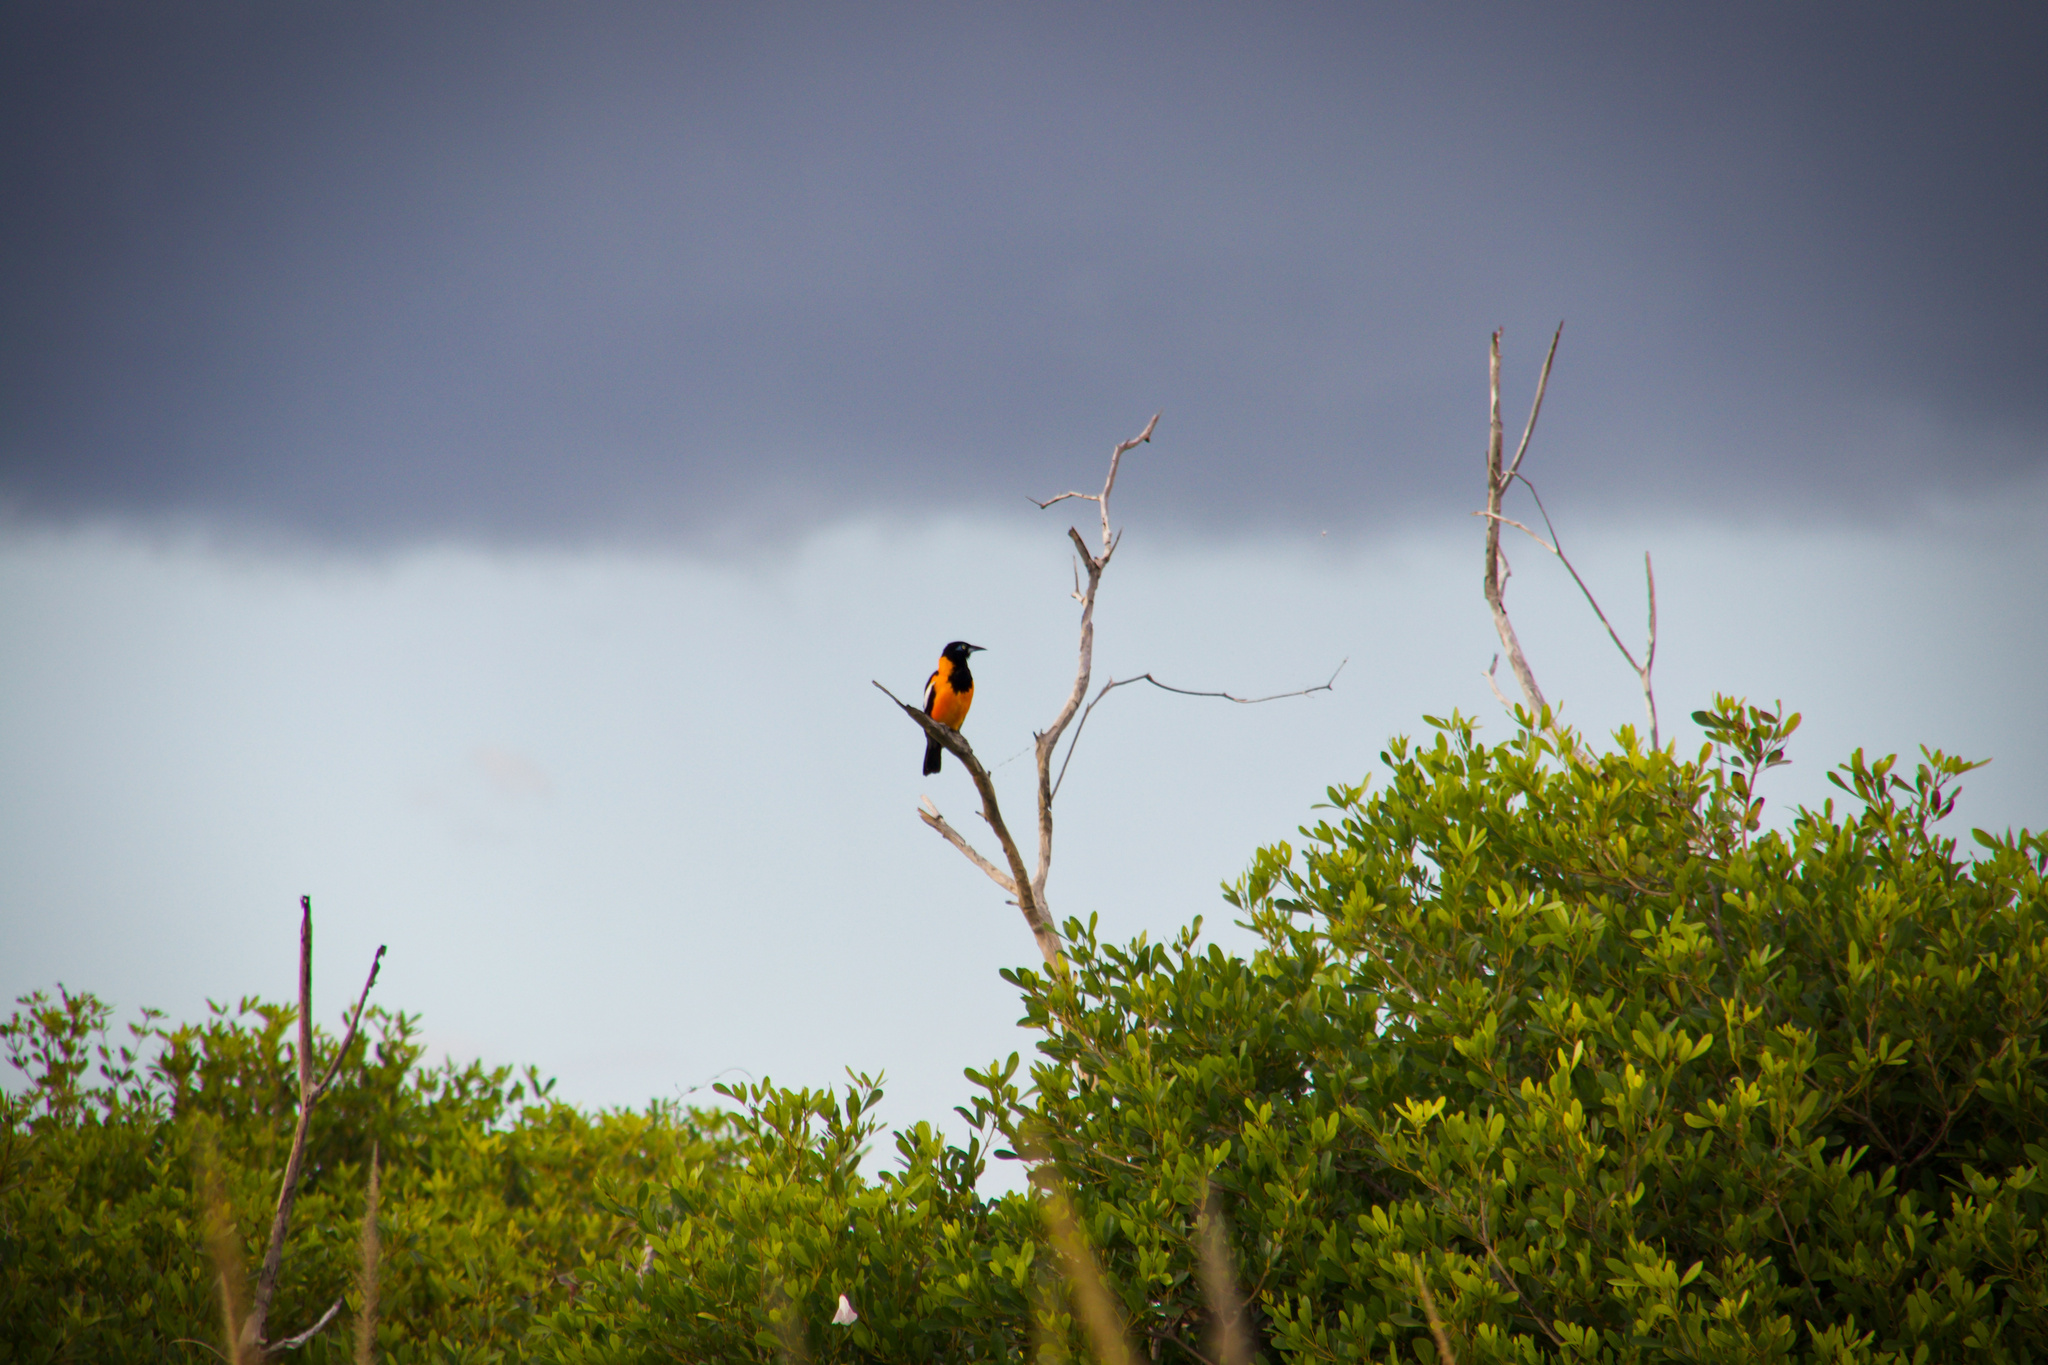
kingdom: Animalia
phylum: Chordata
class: Aves
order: Passeriformes
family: Icteridae
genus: Icterus
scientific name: Icterus icterus
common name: Venezuelan troupial
